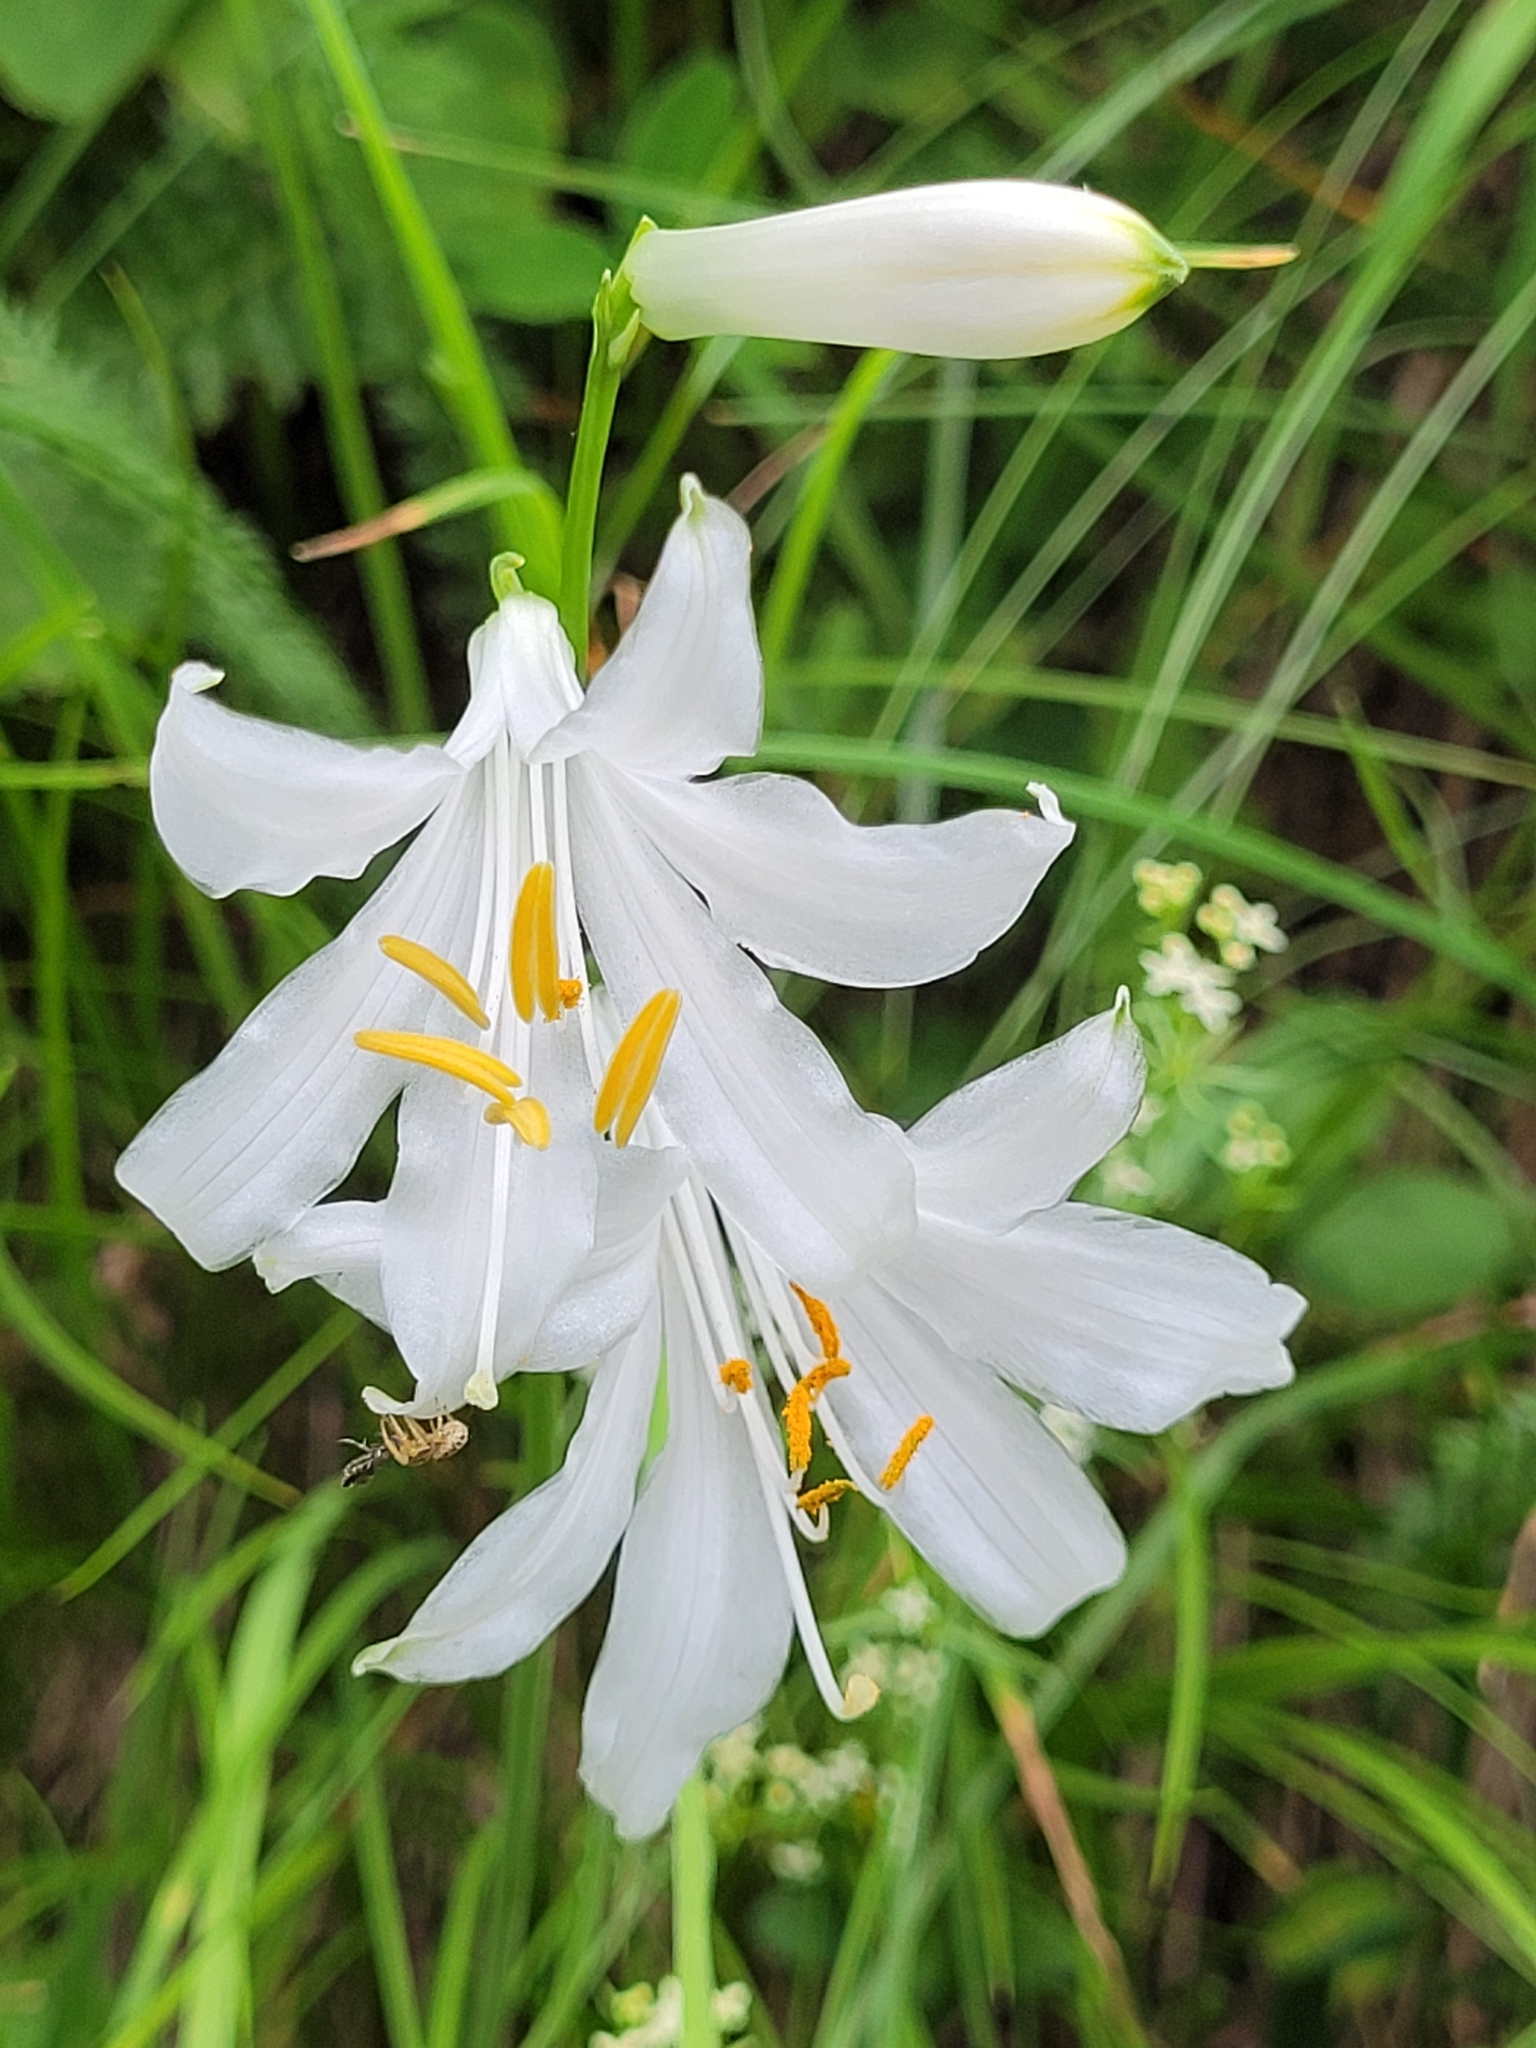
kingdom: Plantae
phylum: Tracheophyta
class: Liliopsida
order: Asparagales
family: Asparagaceae
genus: Paradisea
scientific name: Paradisea liliastrum
